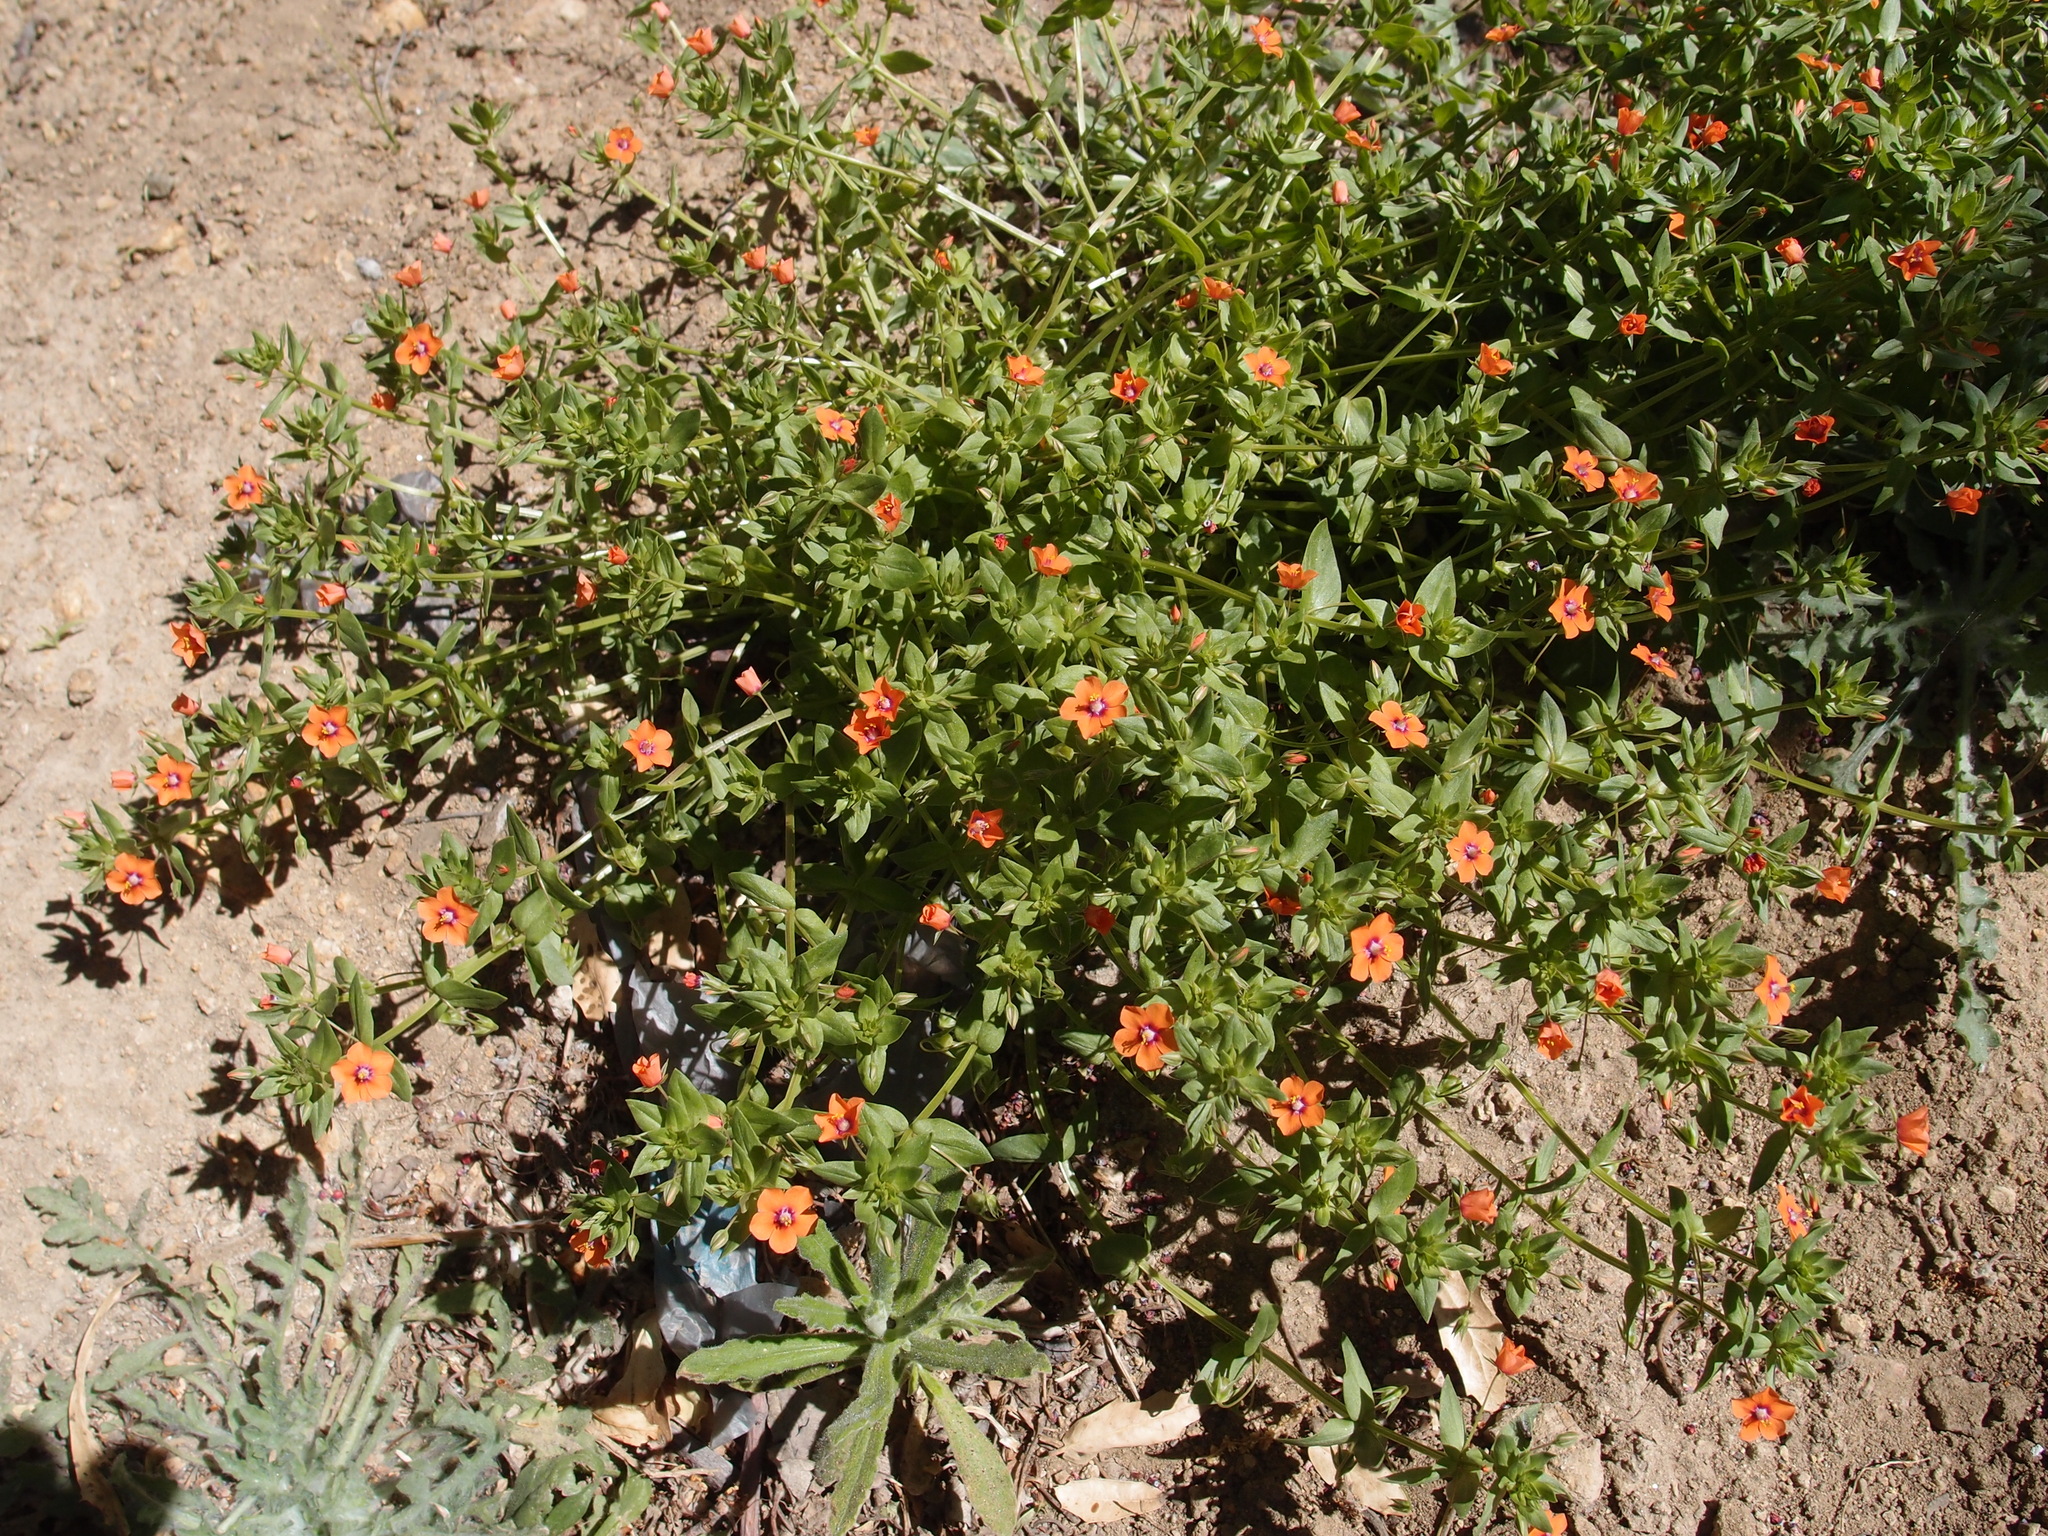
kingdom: Plantae
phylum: Tracheophyta
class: Magnoliopsida
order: Ericales
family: Primulaceae
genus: Lysimachia
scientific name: Lysimachia arvensis
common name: Scarlet pimpernel
